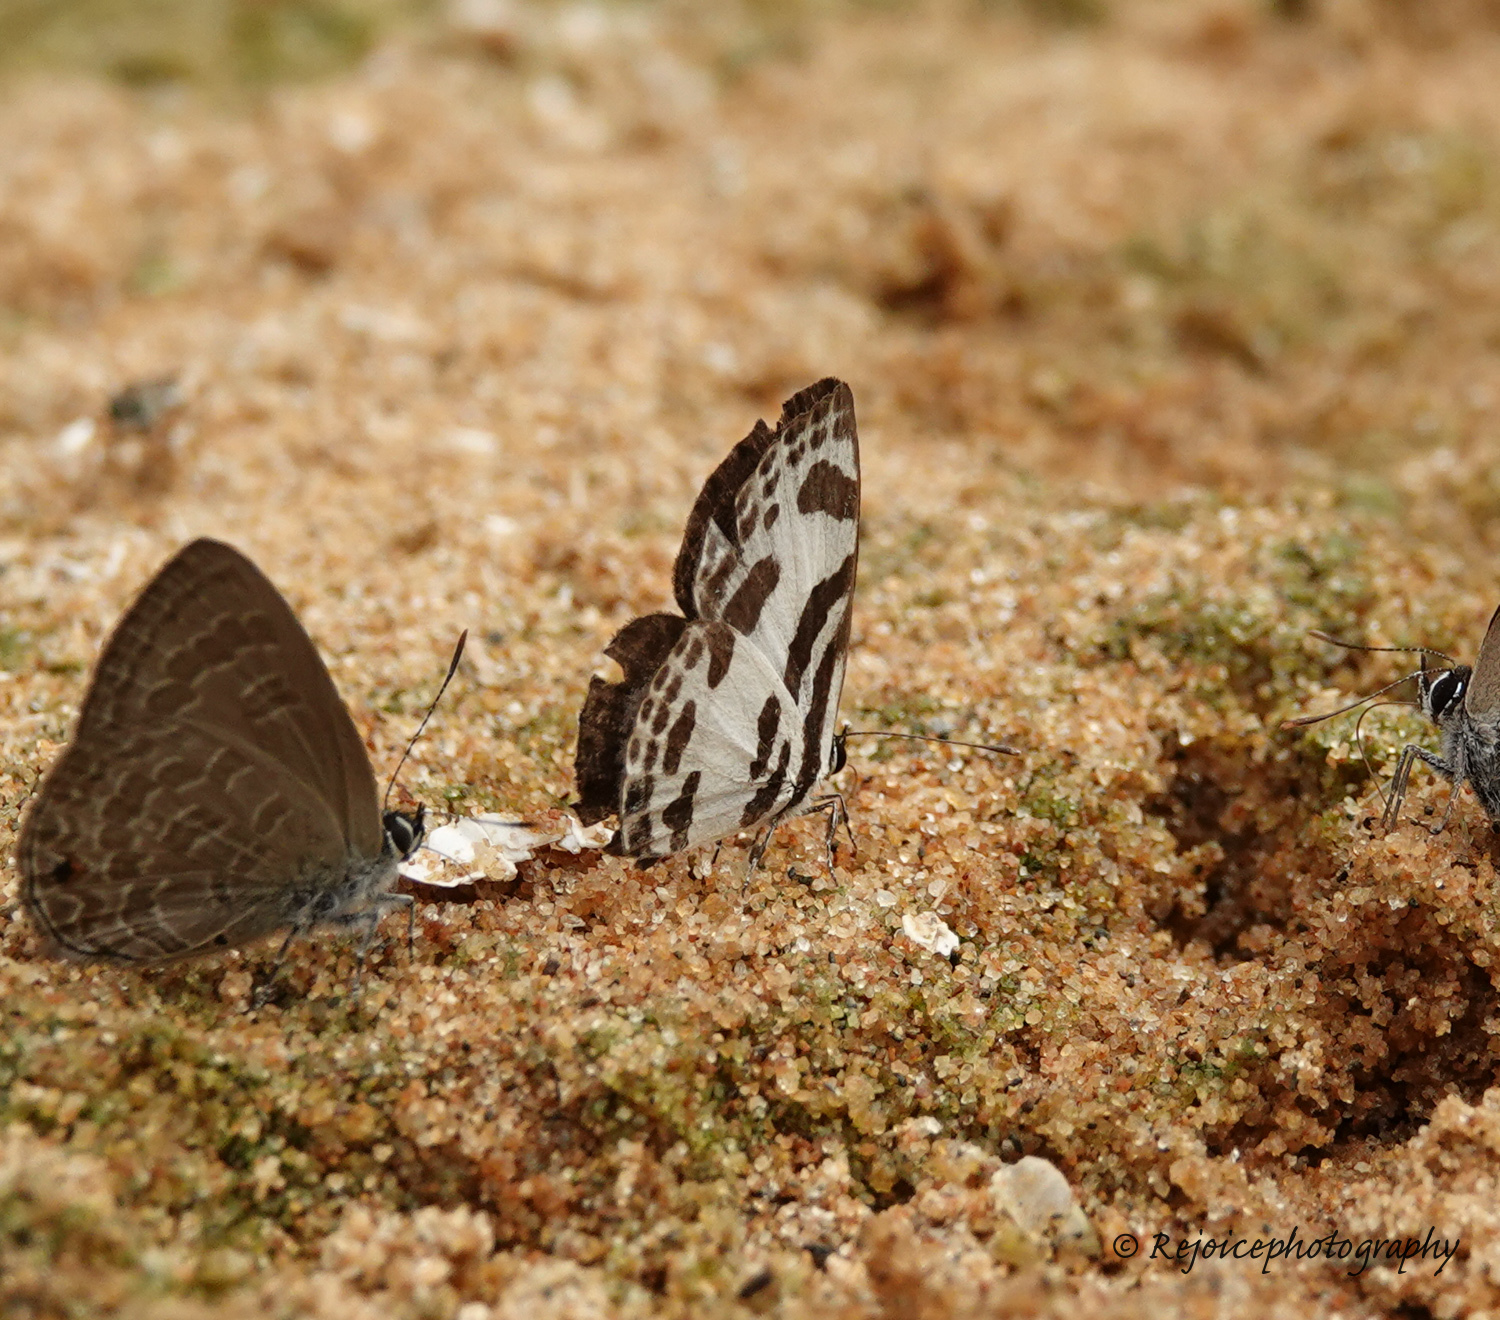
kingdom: Animalia
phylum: Arthropoda
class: Insecta
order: Lepidoptera
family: Lycaenidae
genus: Discolampa
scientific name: Discolampa ethion
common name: Banded blue pierrot
